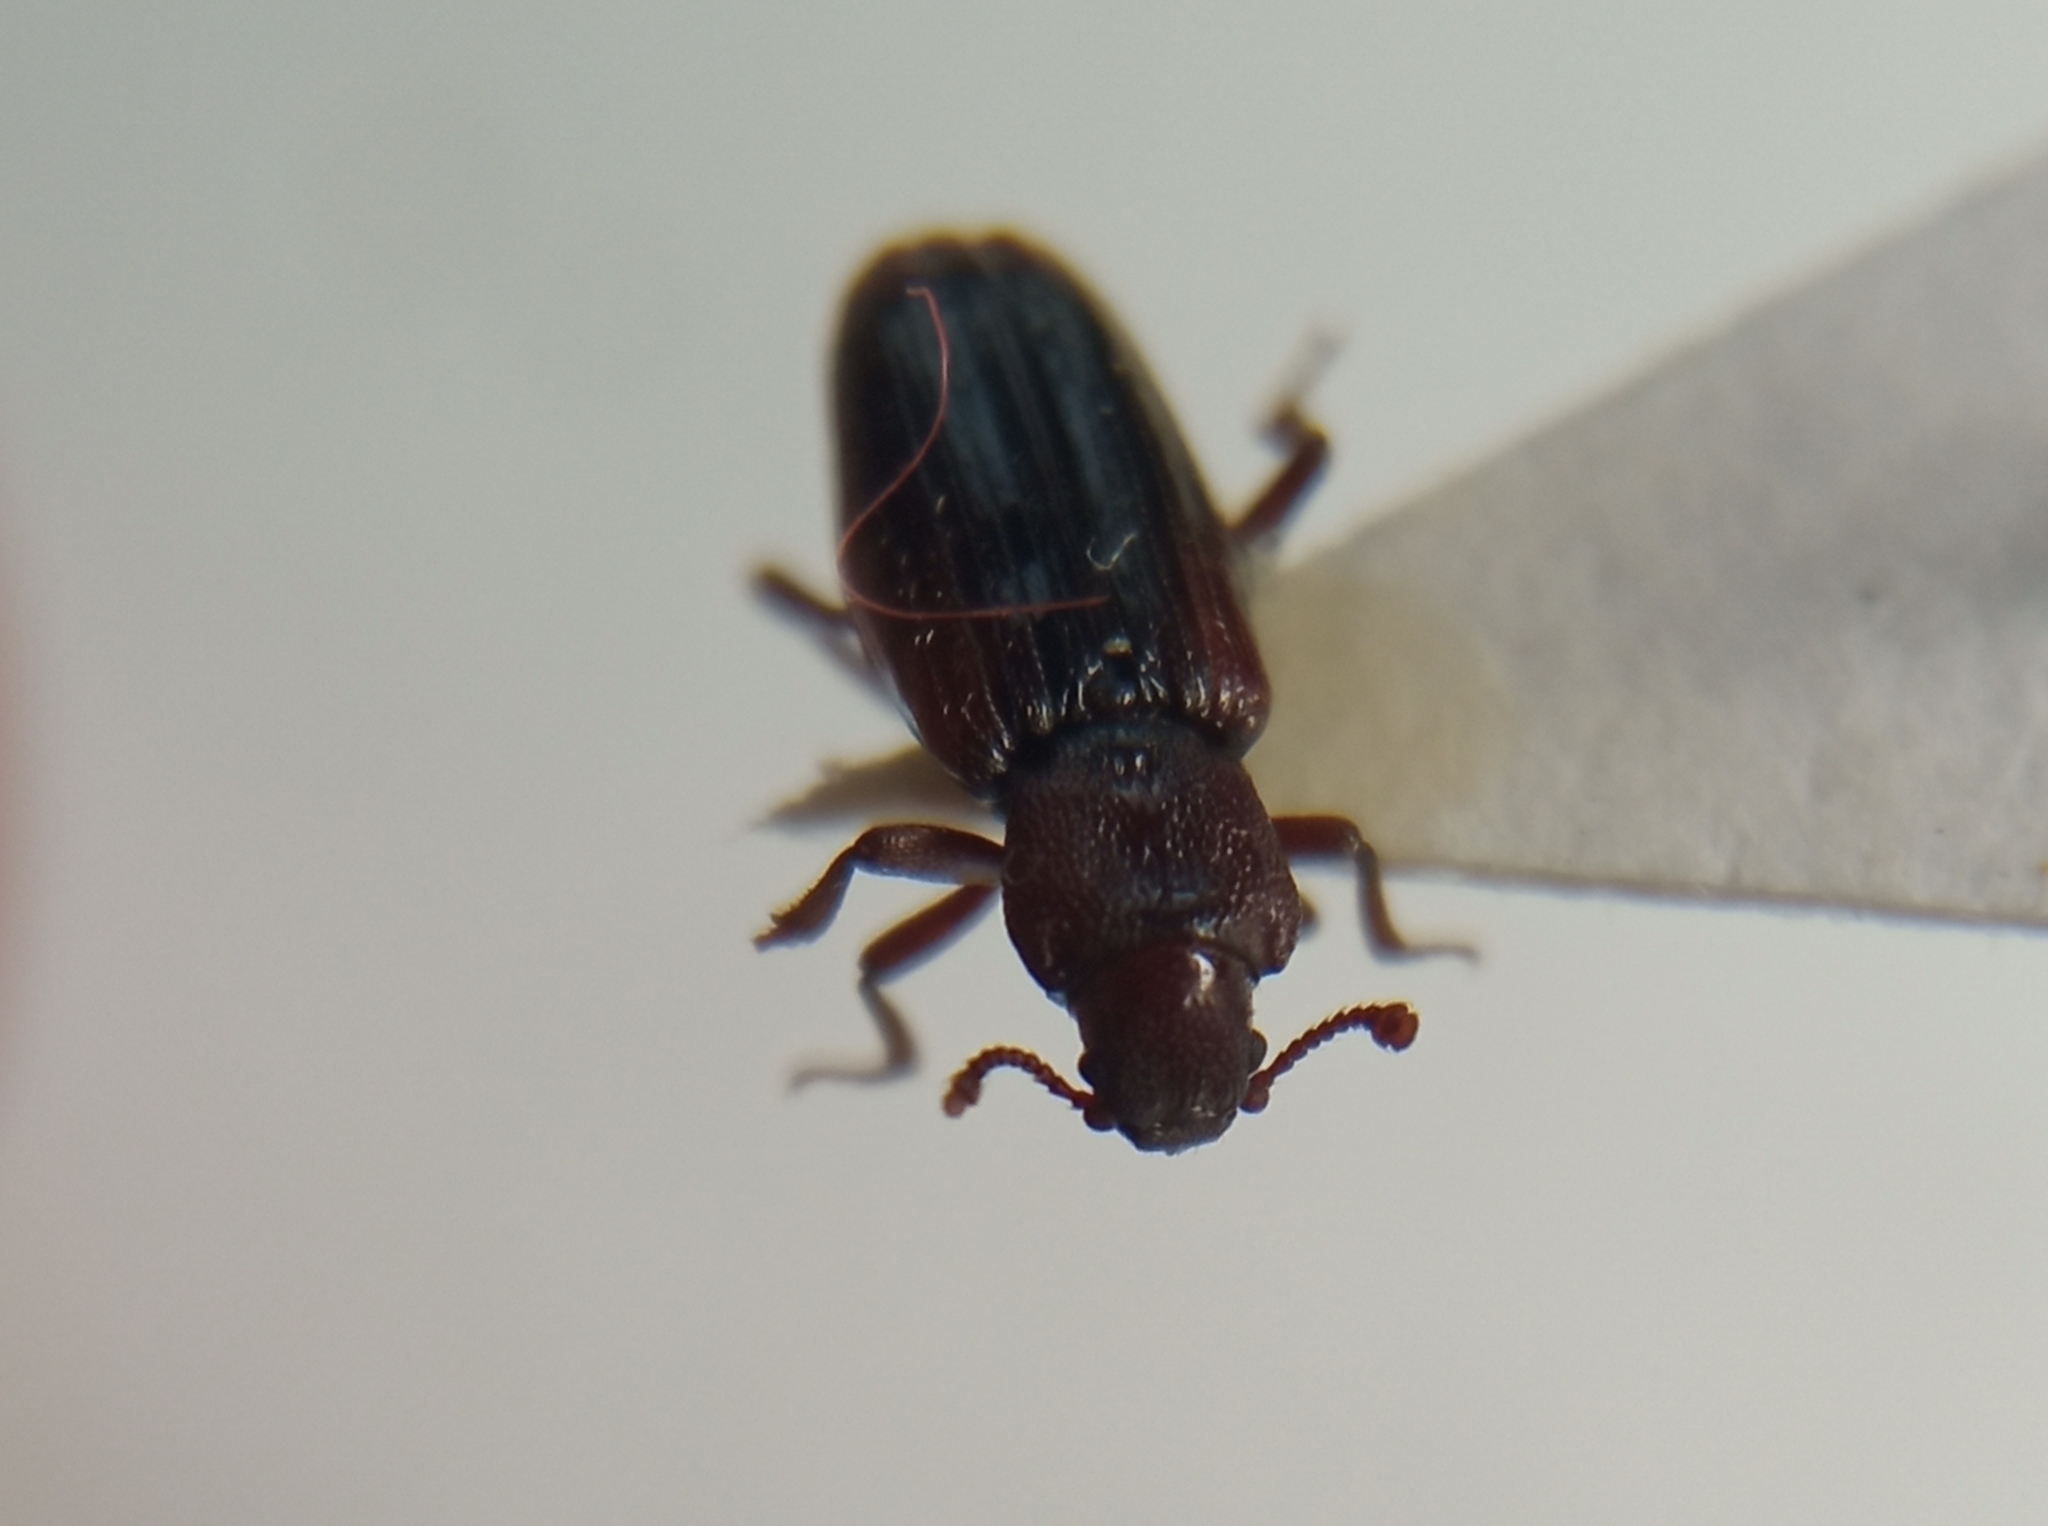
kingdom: Animalia
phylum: Arthropoda
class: Insecta
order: Coleoptera
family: Bothrideridae
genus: Bothrideres
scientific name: Bothrideres bipunctatus
